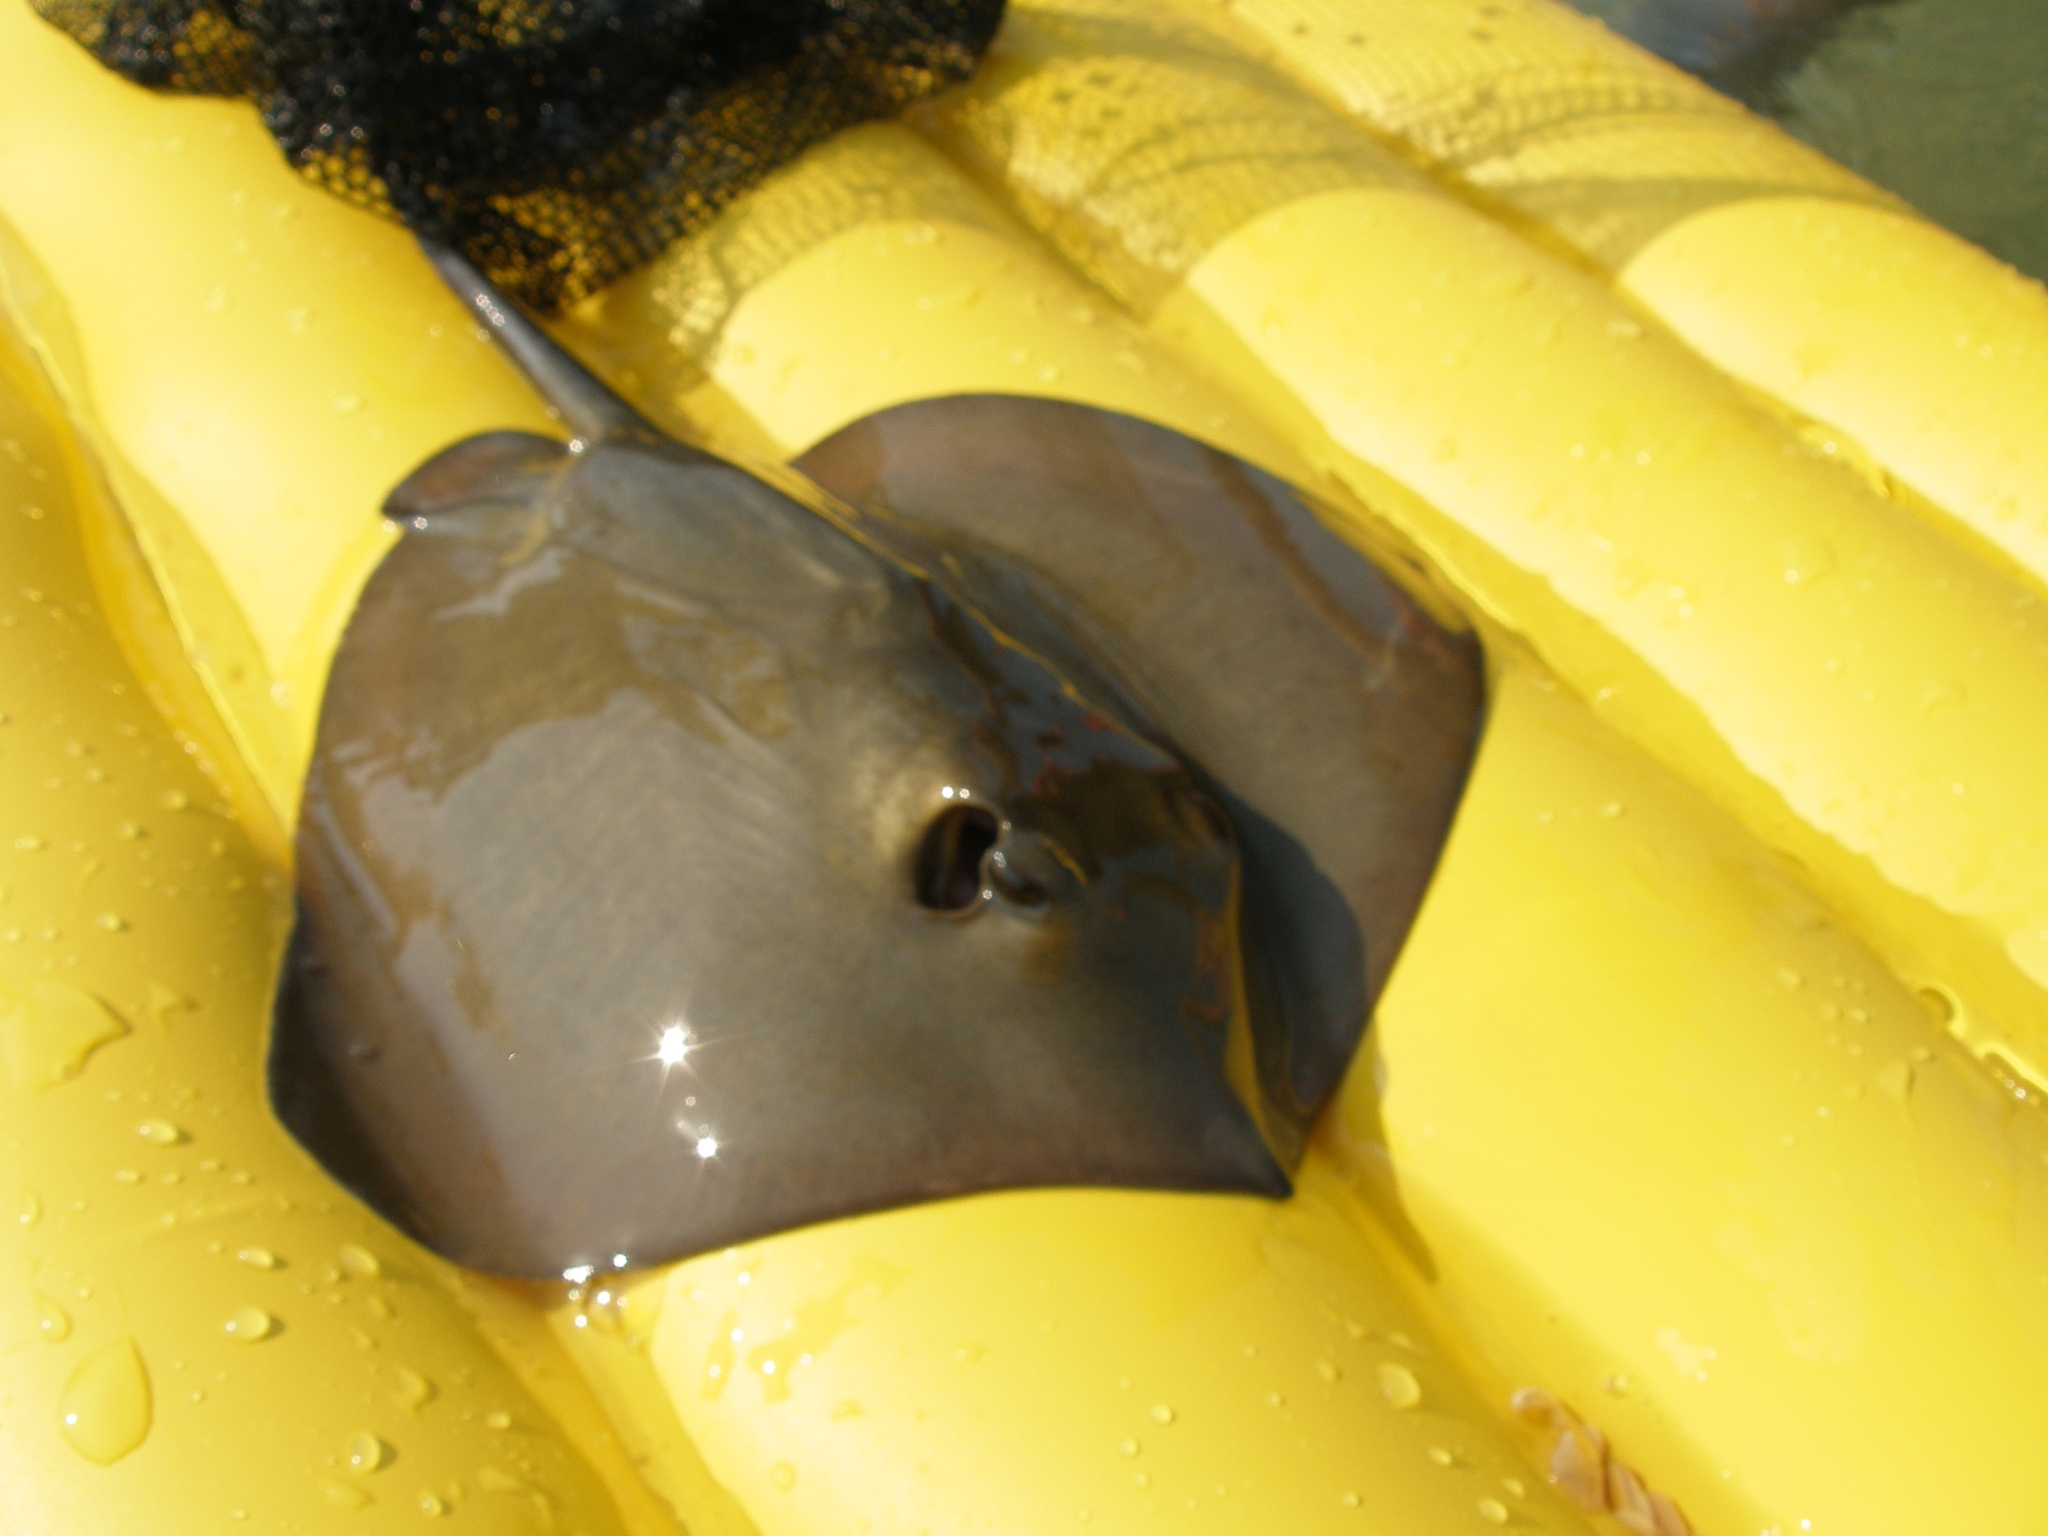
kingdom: Animalia
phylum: Chordata
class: Elasmobranchii
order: Myliobatiformes
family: Dasyatidae
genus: Dasyatis
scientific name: Dasyatis pastinaca
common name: Common stingray
